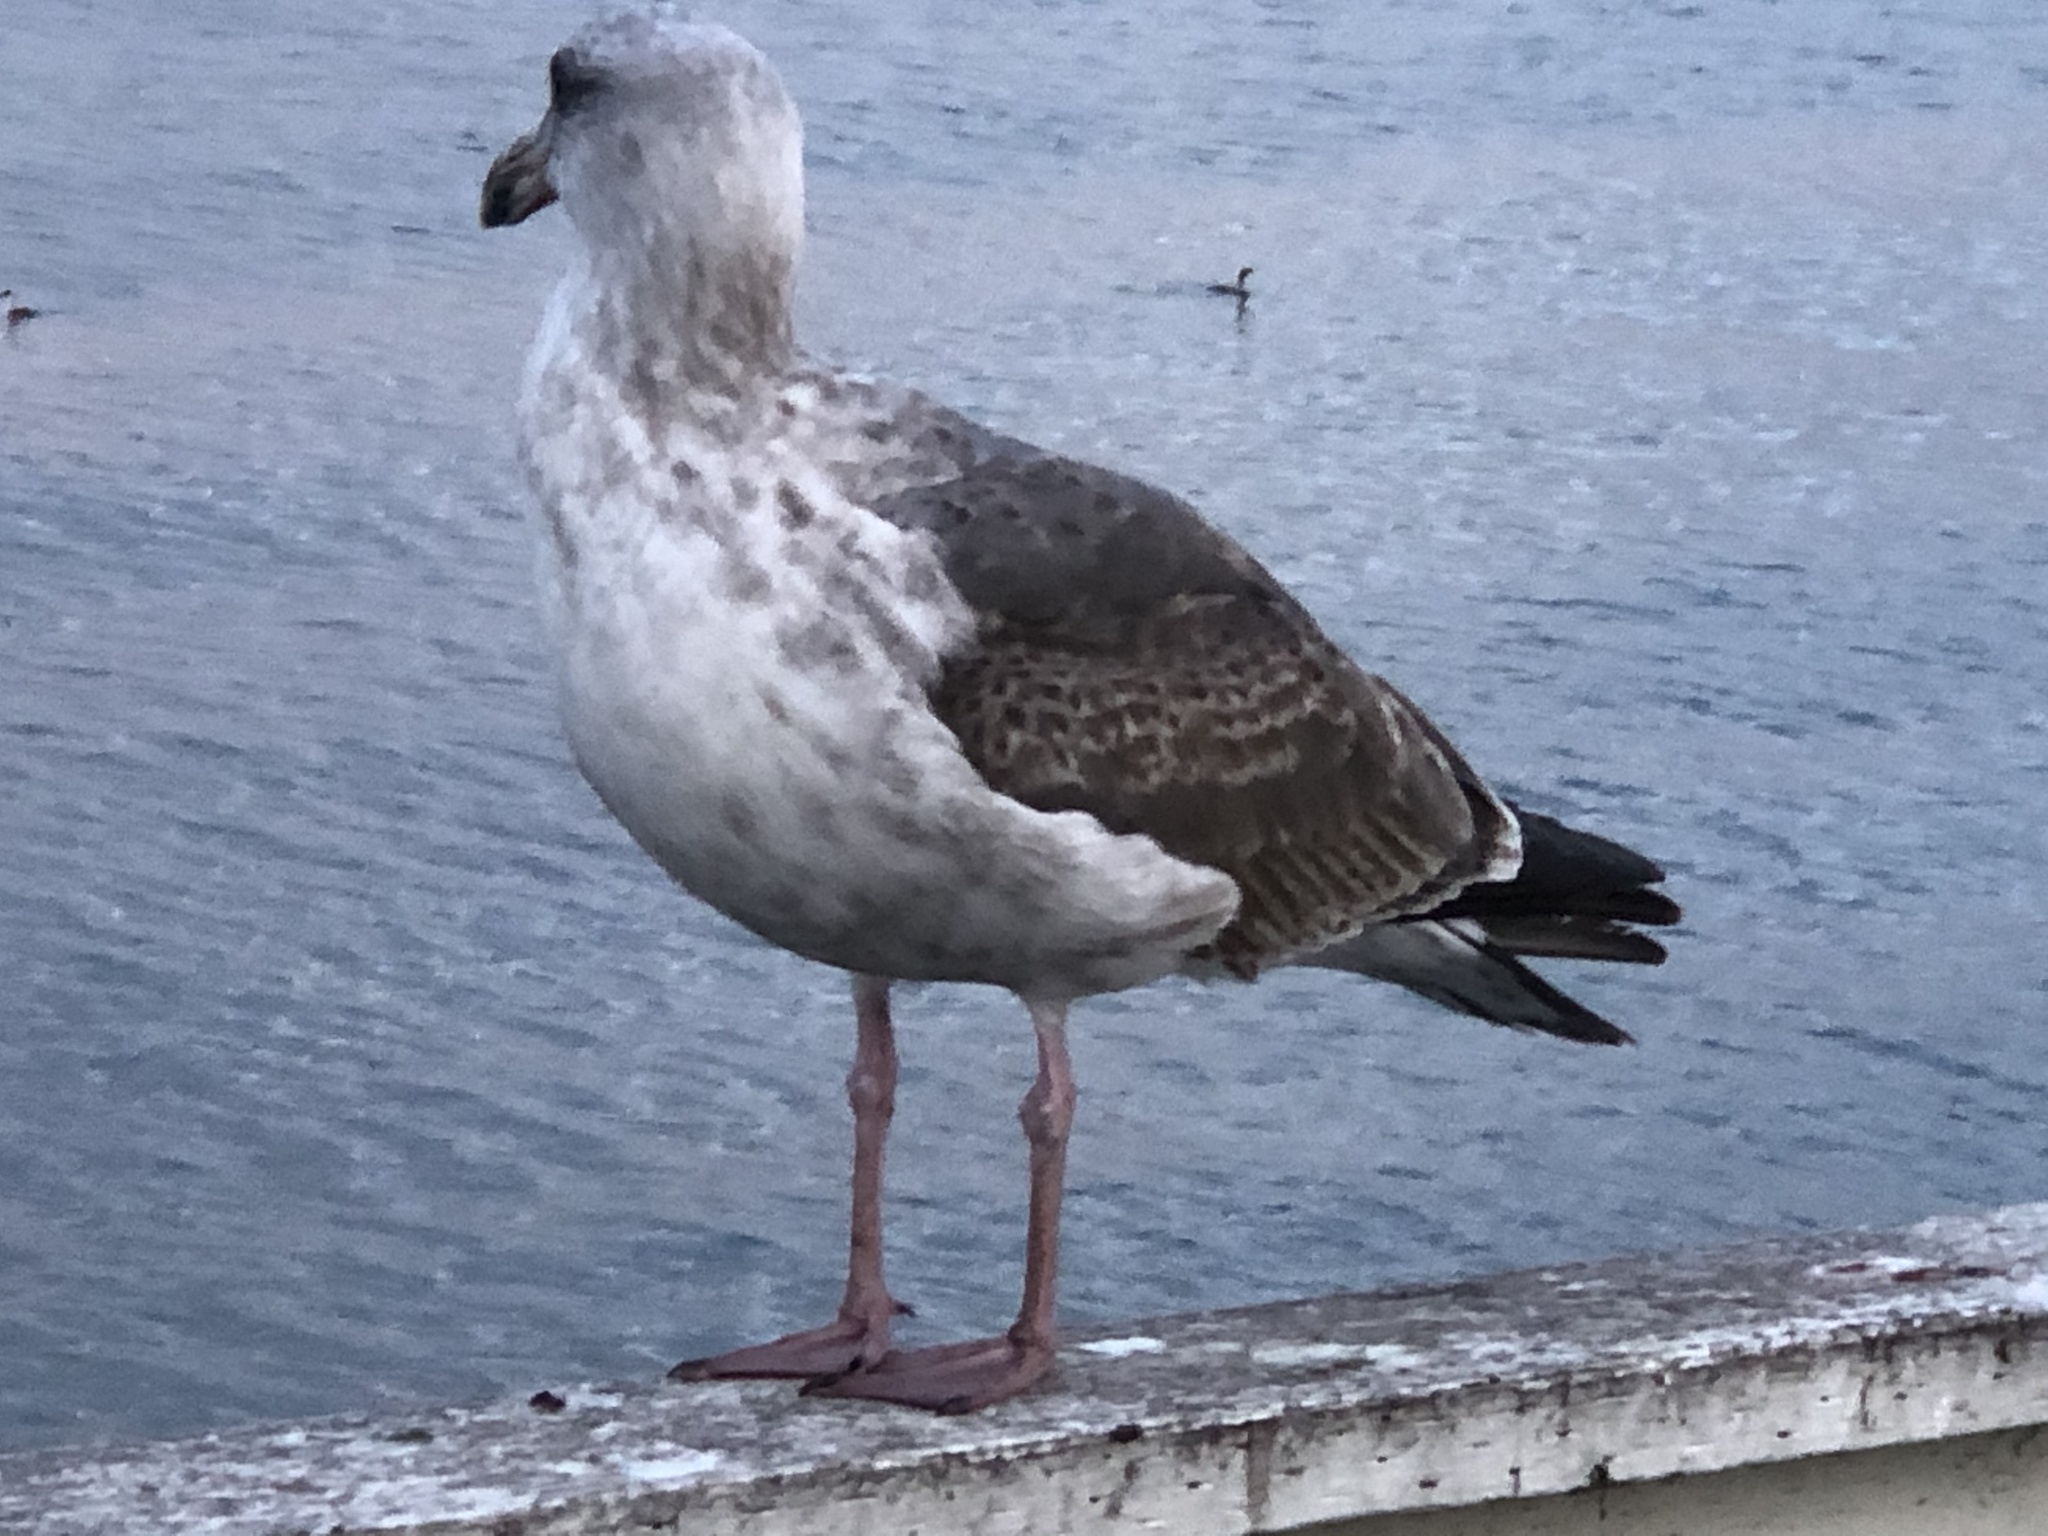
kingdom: Animalia
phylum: Chordata
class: Aves
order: Charadriiformes
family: Laridae
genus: Larus
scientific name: Larus occidentalis
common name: Western gull
